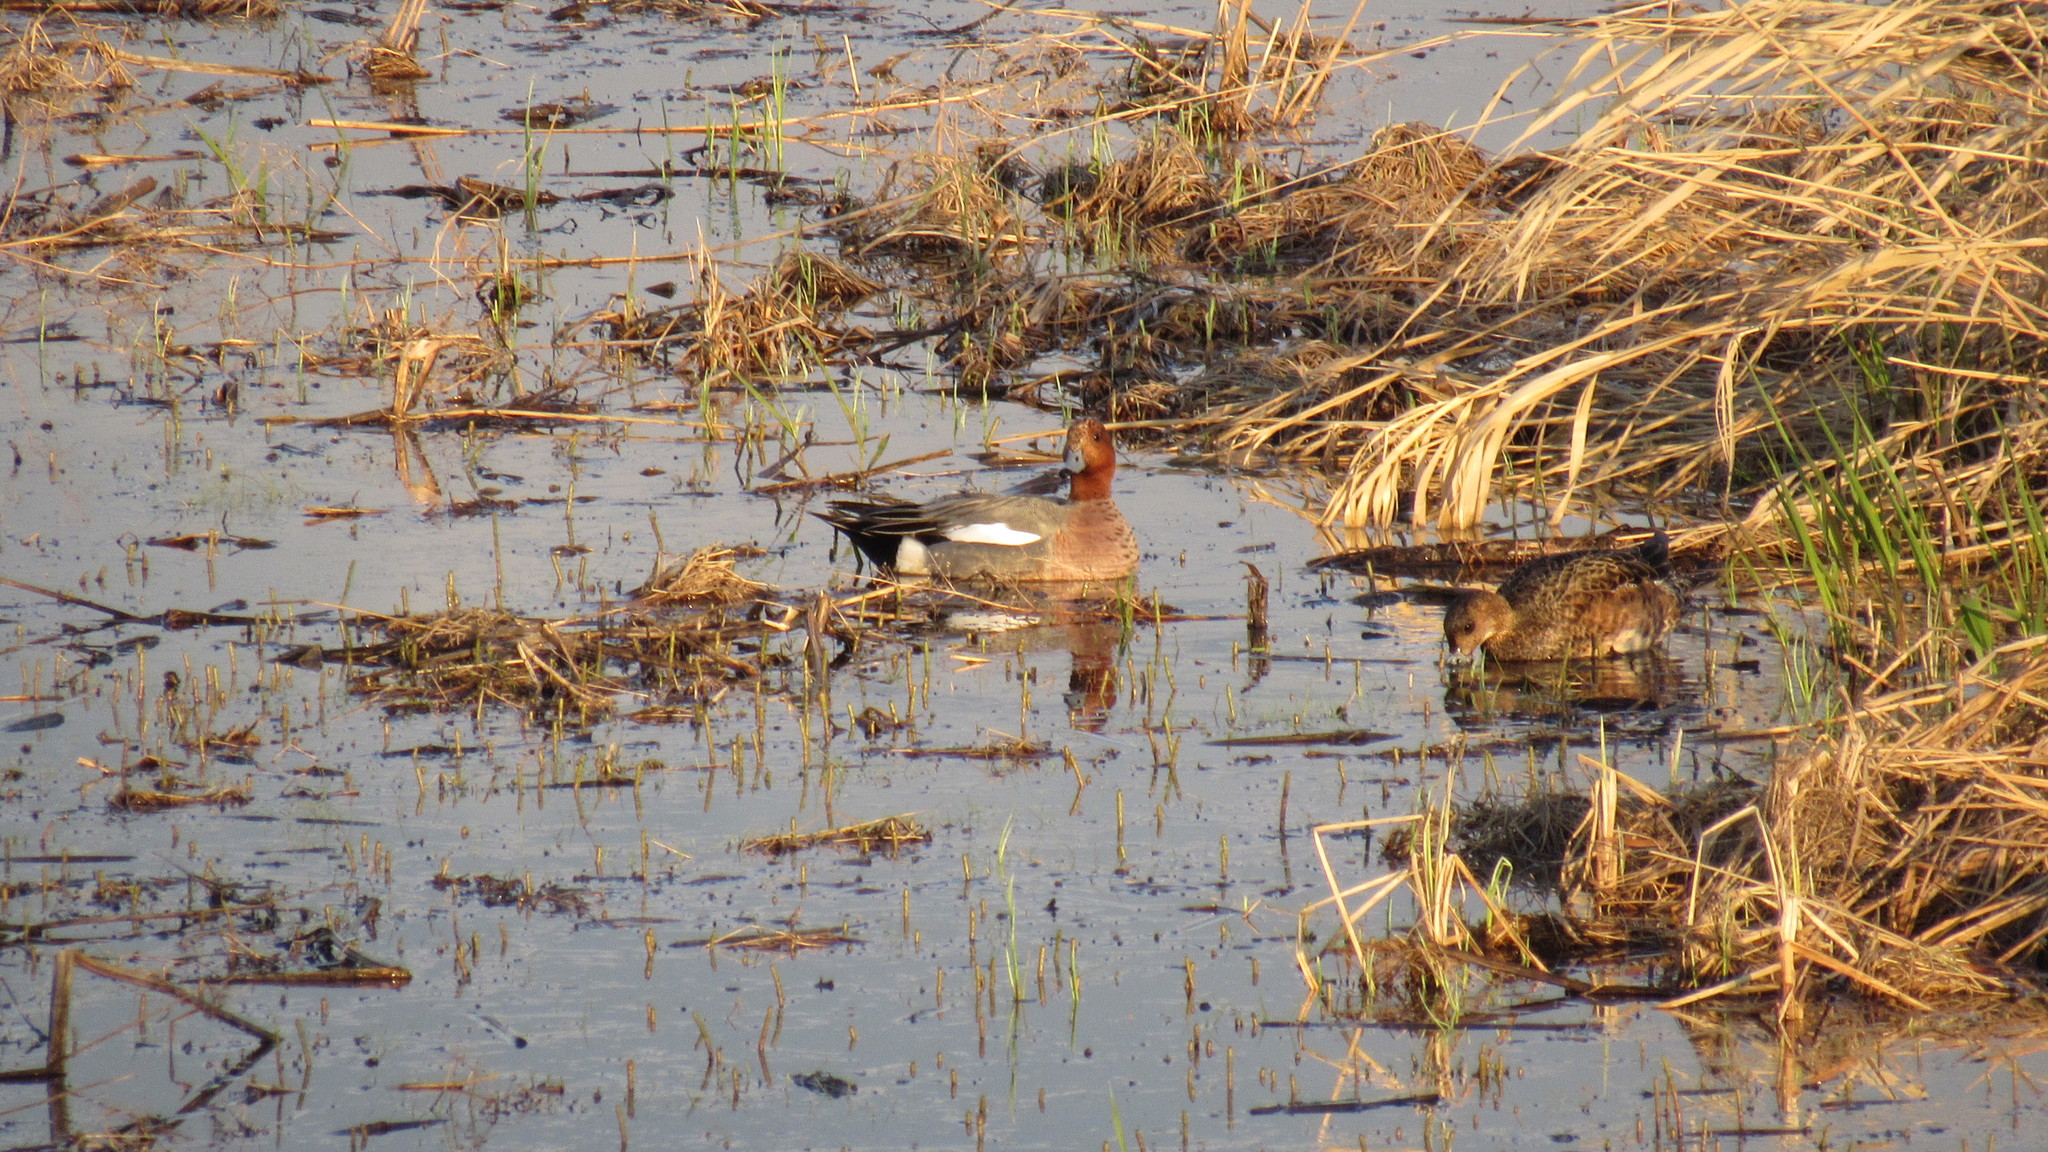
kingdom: Animalia
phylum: Chordata
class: Aves
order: Anseriformes
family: Anatidae
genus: Mareca
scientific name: Mareca penelope
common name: Eurasian wigeon
